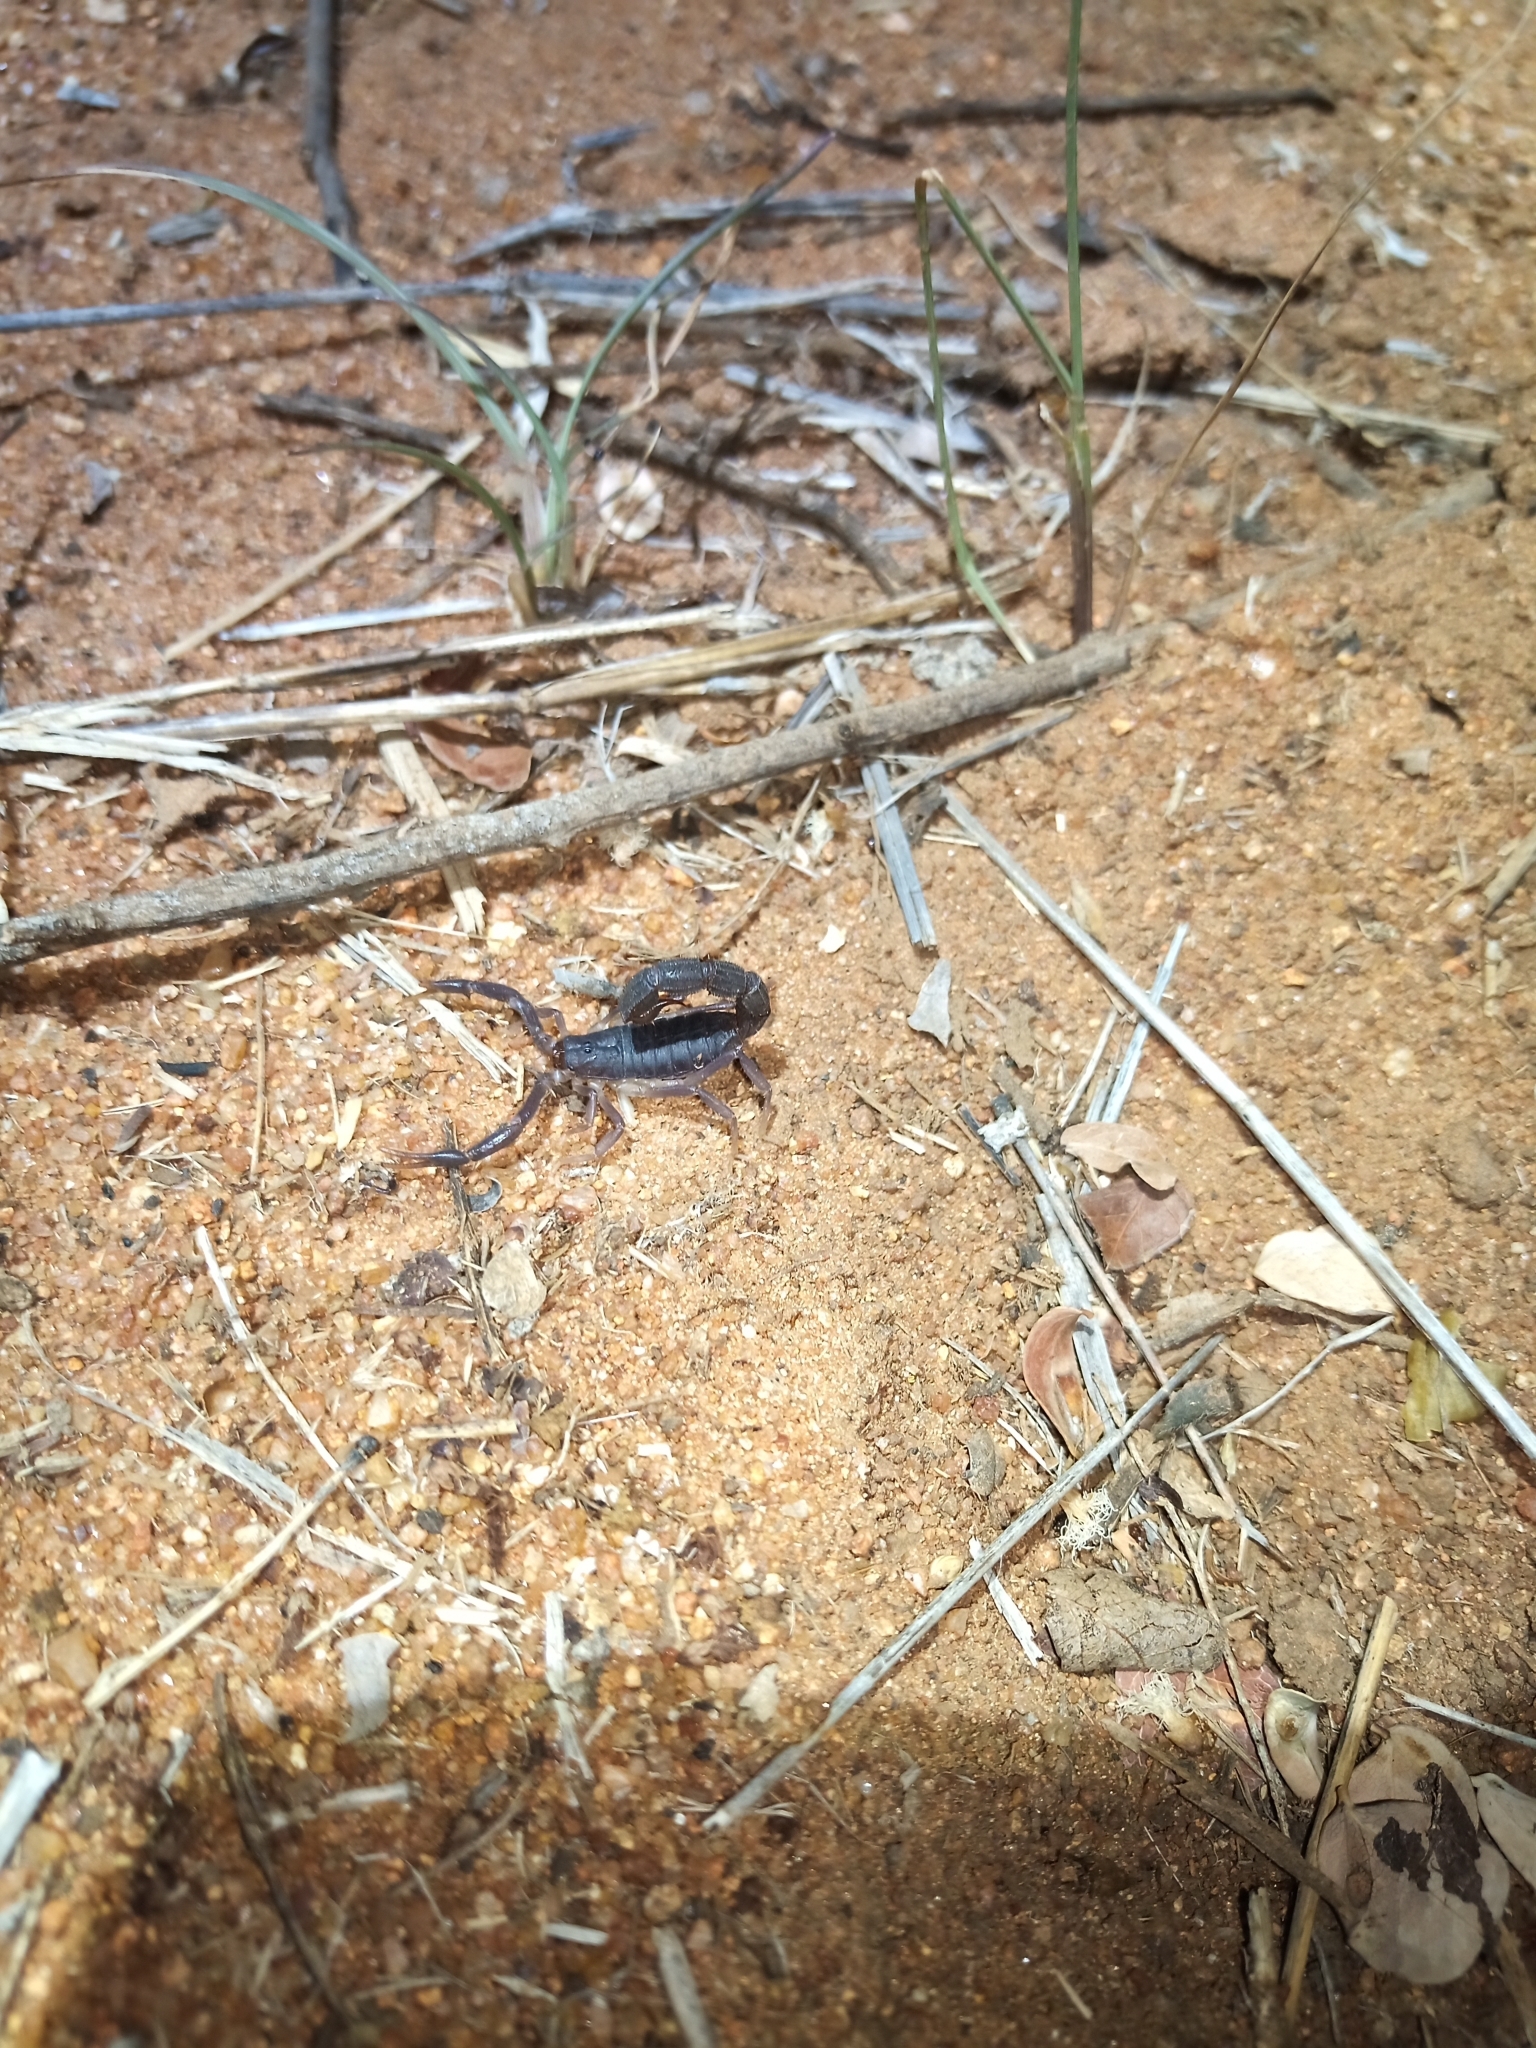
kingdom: Animalia
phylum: Arthropoda
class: Arachnida
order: Scorpiones
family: Buthidae
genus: Parabuthus
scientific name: Parabuthus transvaalicus
